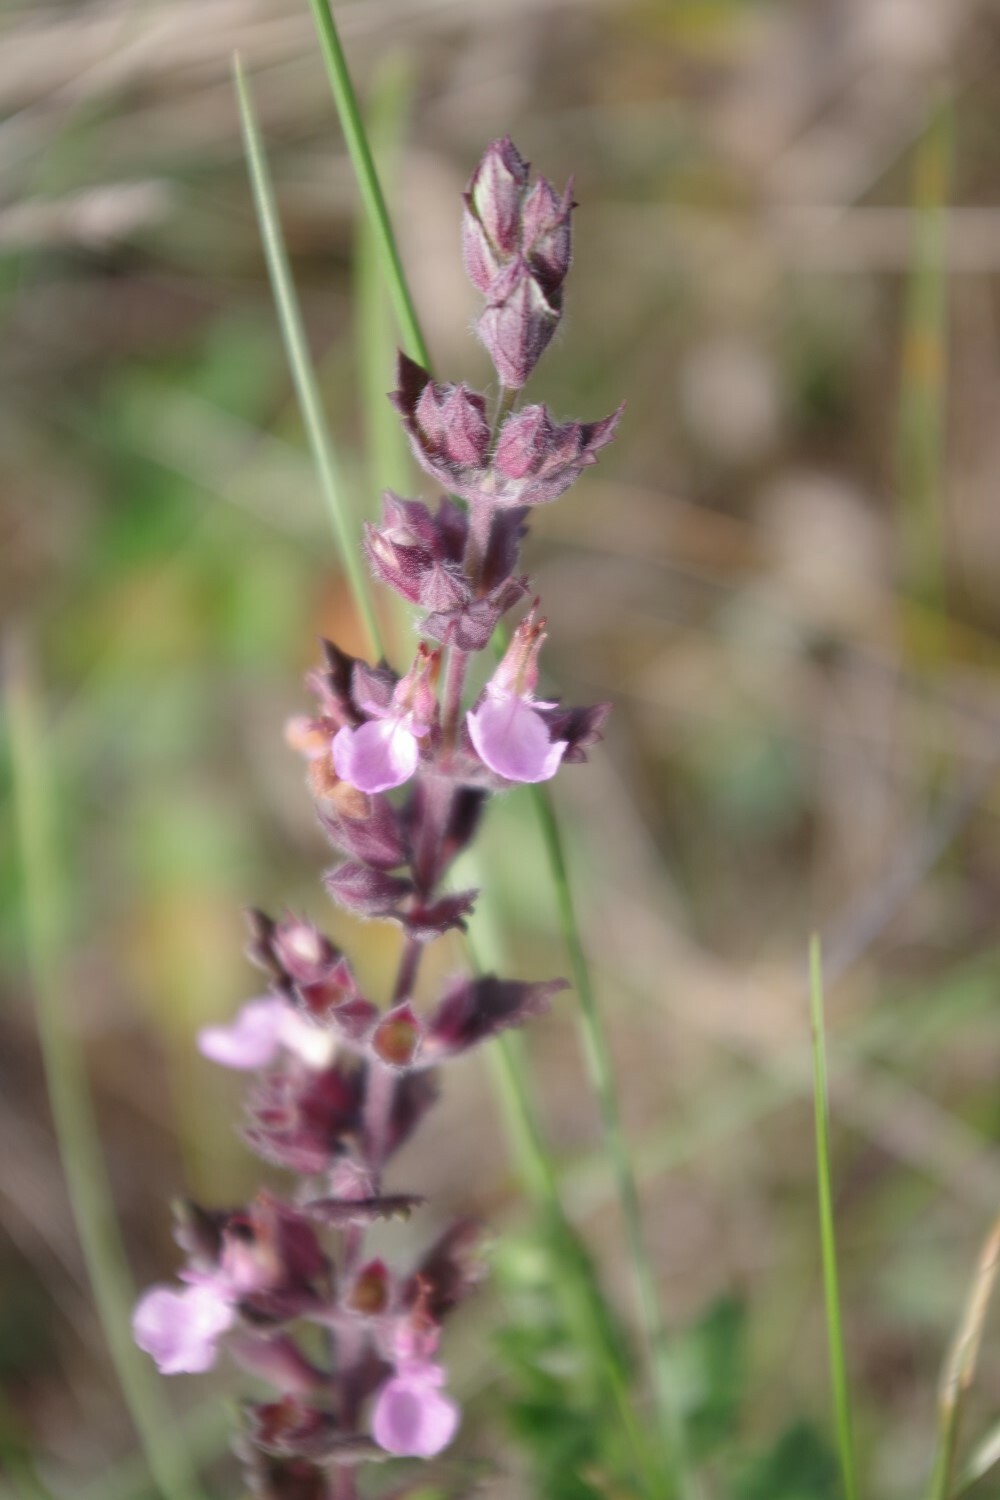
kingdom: Plantae
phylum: Tracheophyta
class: Magnoliopsida
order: Lamiales
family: Lamiaceae
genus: Teucrium
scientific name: Teucrium chamaedrys
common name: Wall germander
